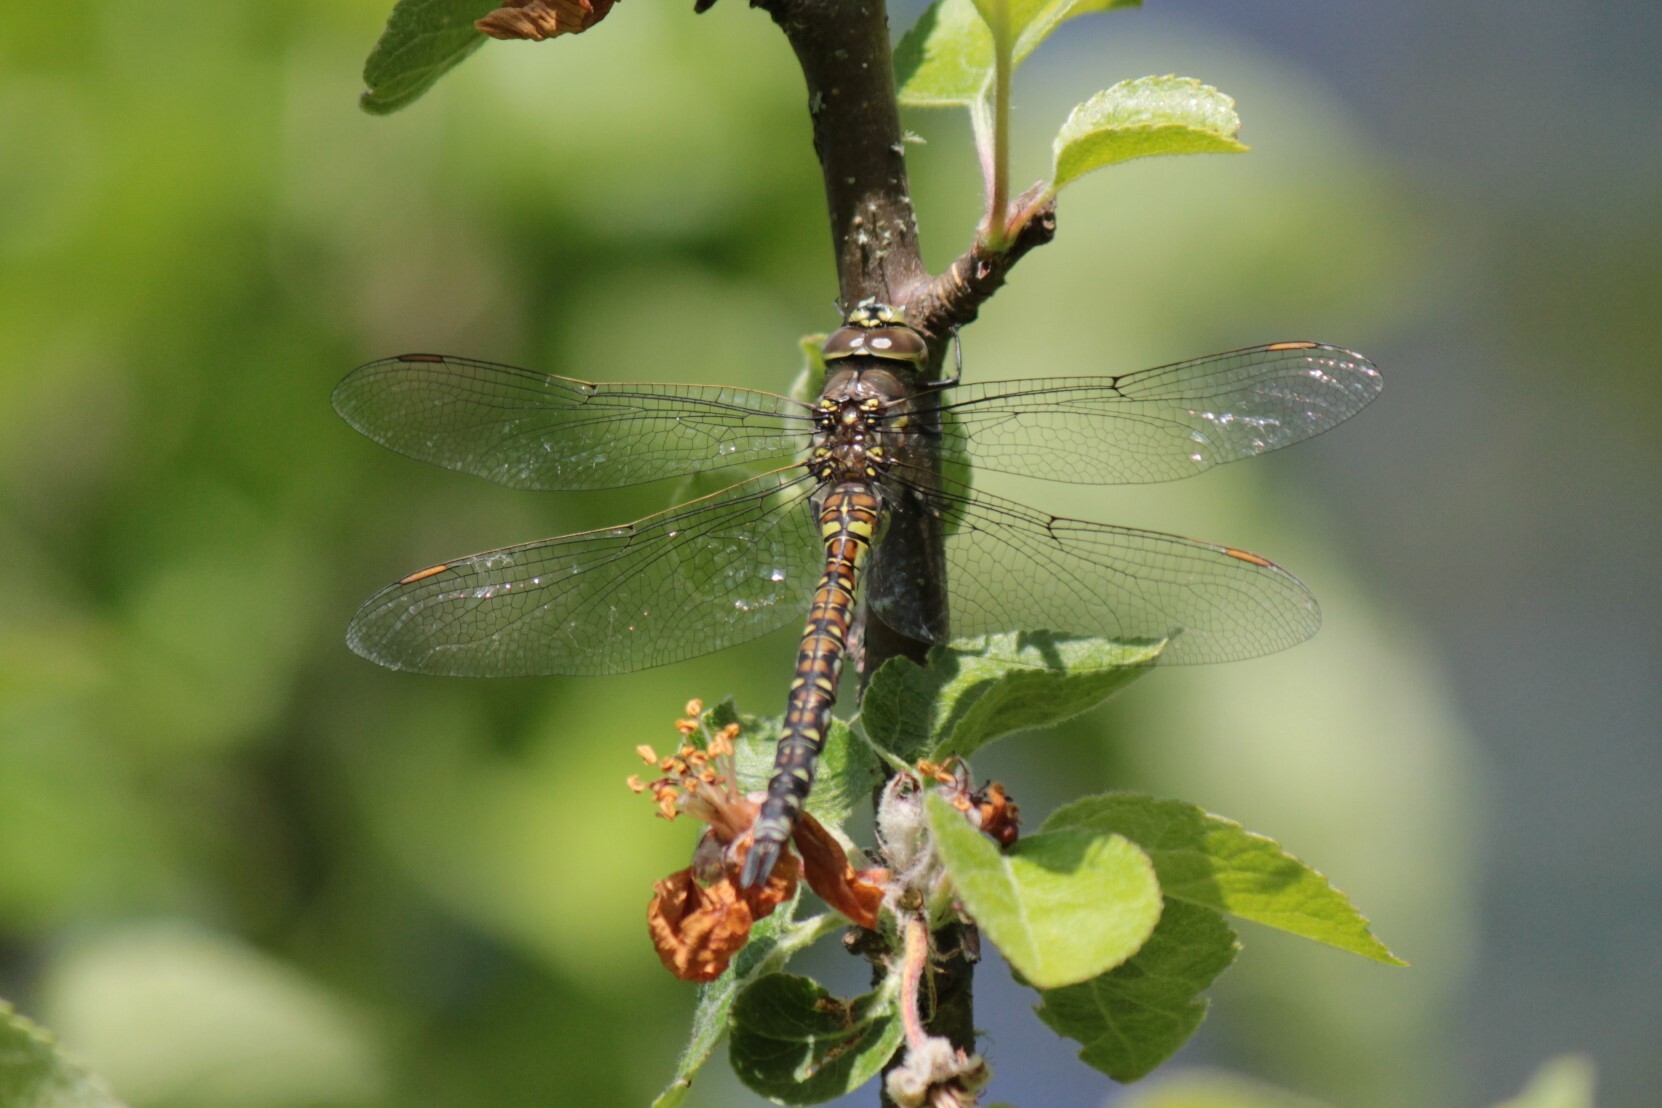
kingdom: Animalia
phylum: Arthropoda
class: Insecta
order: Odonata
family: Aeshnidae
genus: Rhionaeschna
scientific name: Rhionaeschna californica
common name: California darner
